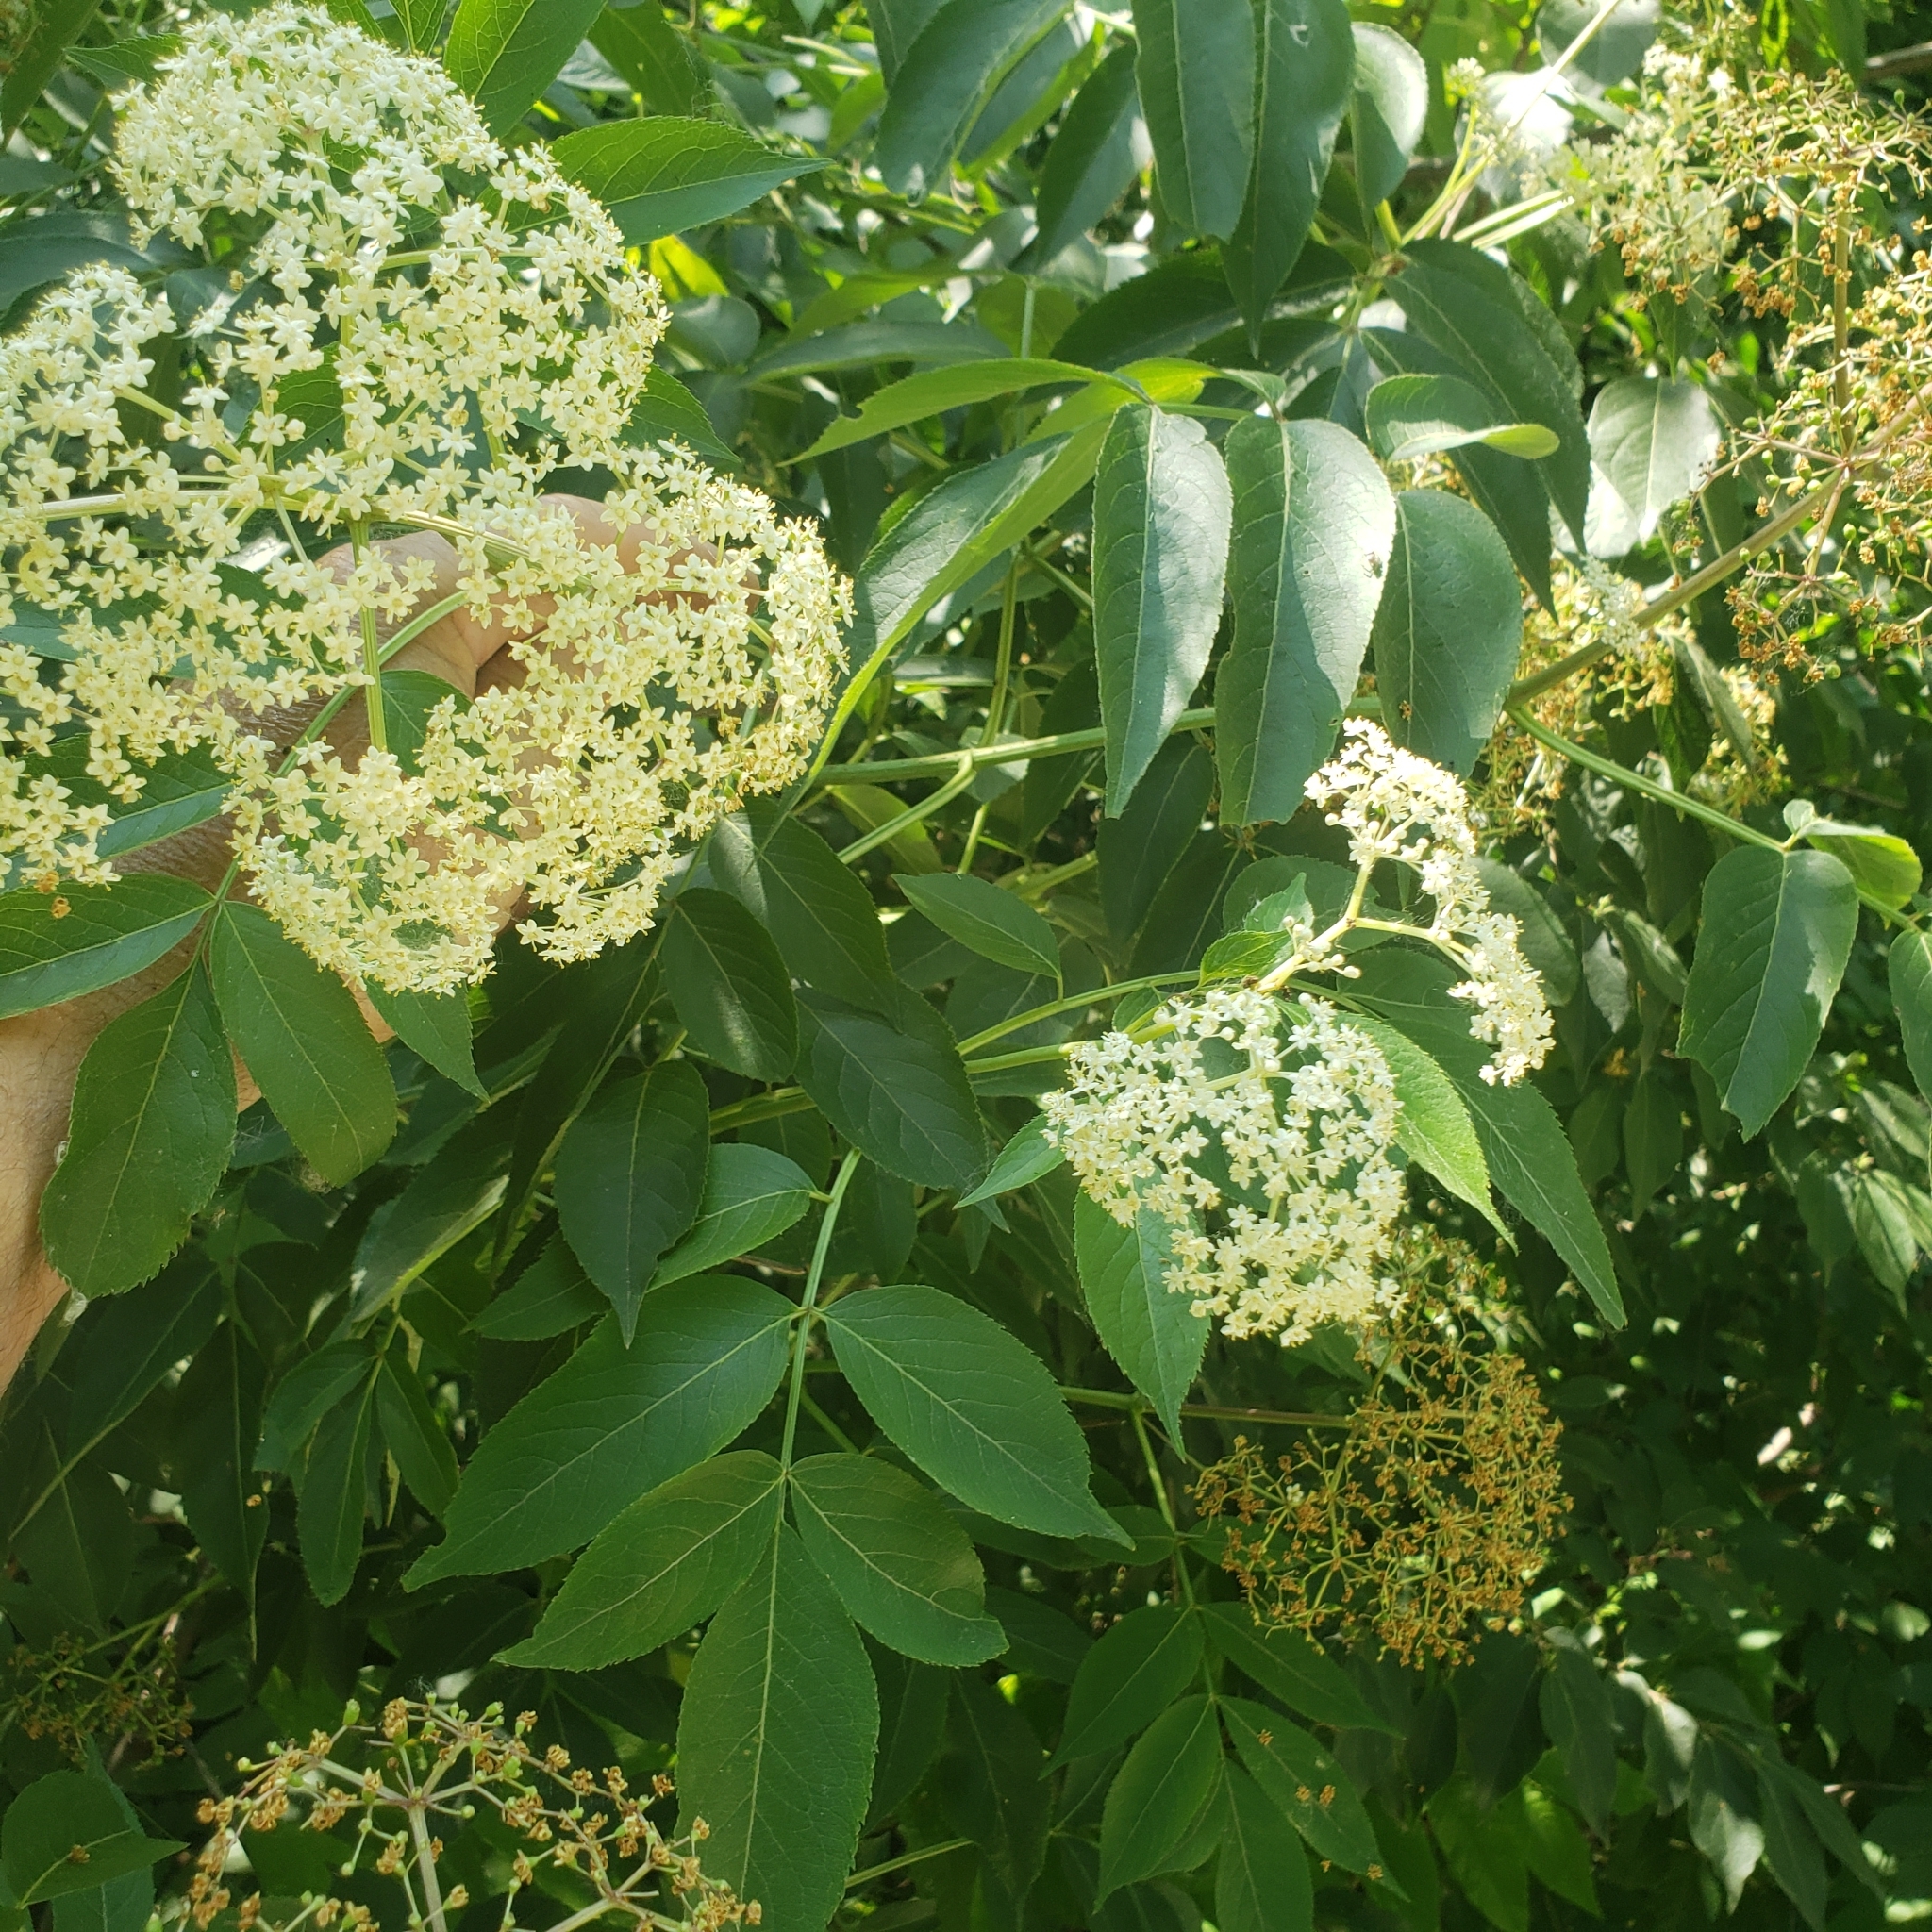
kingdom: Plantae
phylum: Tracheophyta
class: Magnoliopsida
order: Dipsacales
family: Viburnaceae
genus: Sambucus
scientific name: Sambucus canadensis
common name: American elder
